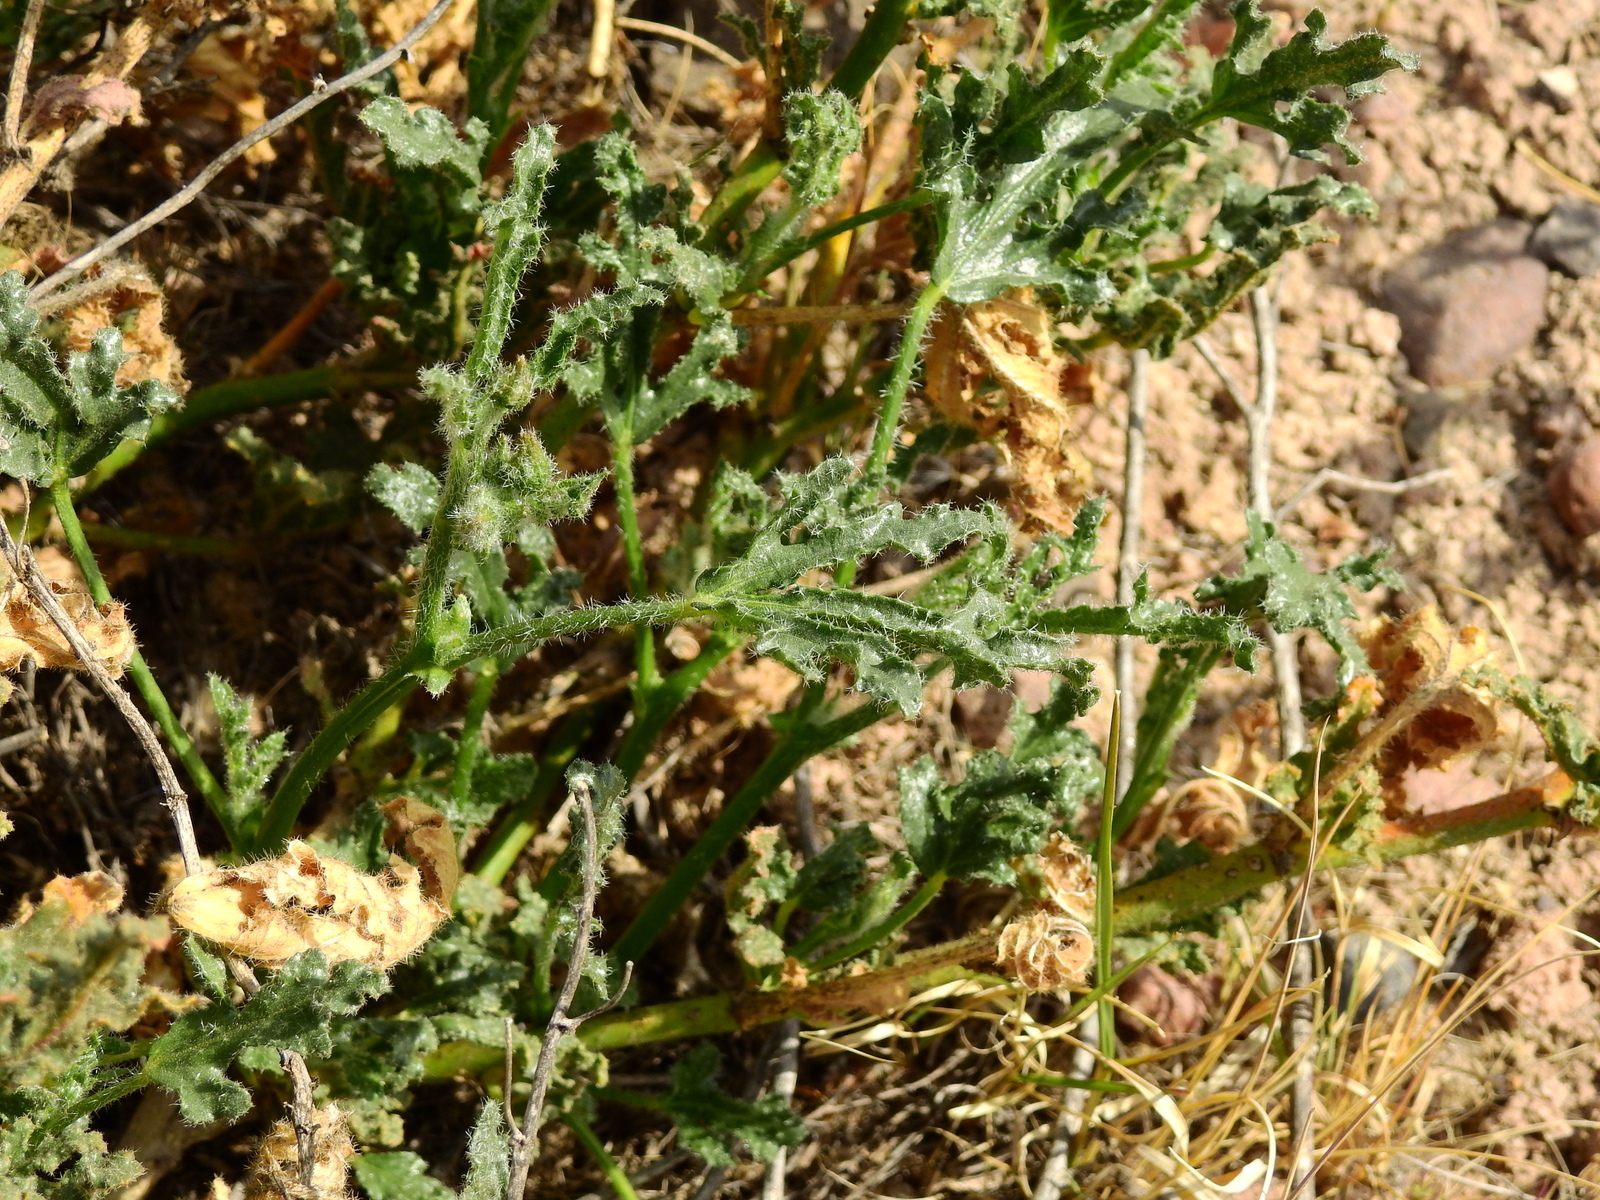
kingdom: Plantae
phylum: Tracheophyta
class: Magnoliopsida
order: Malvales
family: Malvaceae
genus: Lecanophora
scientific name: Lecanophora heterophylla
